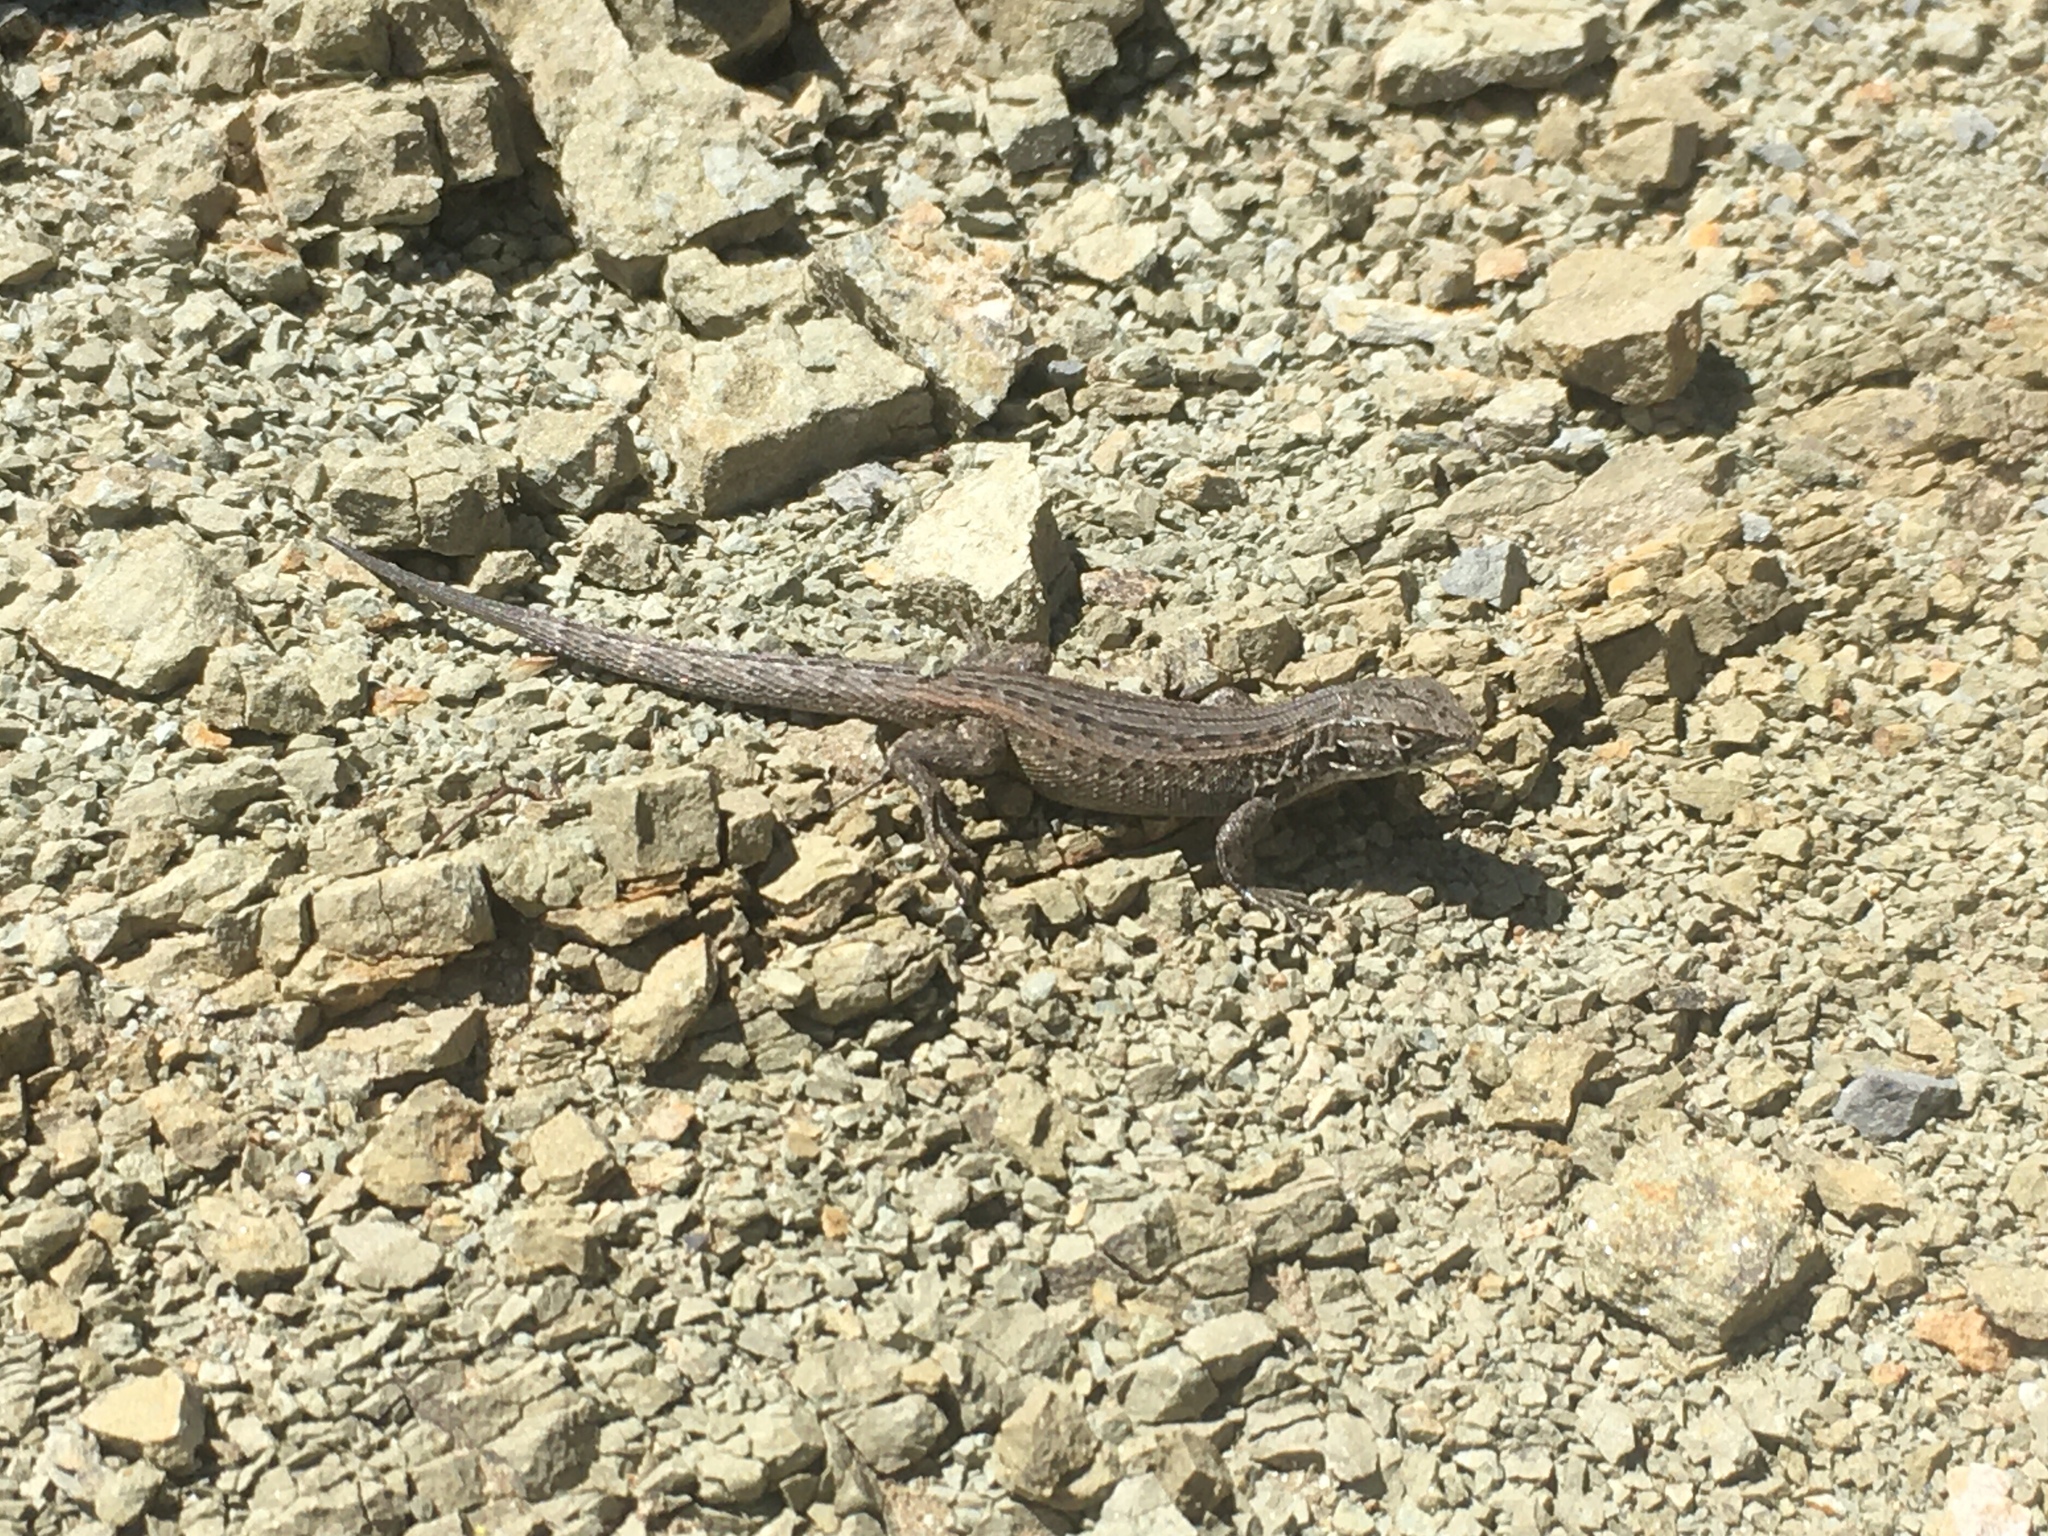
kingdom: Animalia
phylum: Chordata
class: Squamata
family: Liolaemidae
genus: Liolaemus
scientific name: Liolaemus bibronii
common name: Bibron's tree iguana
